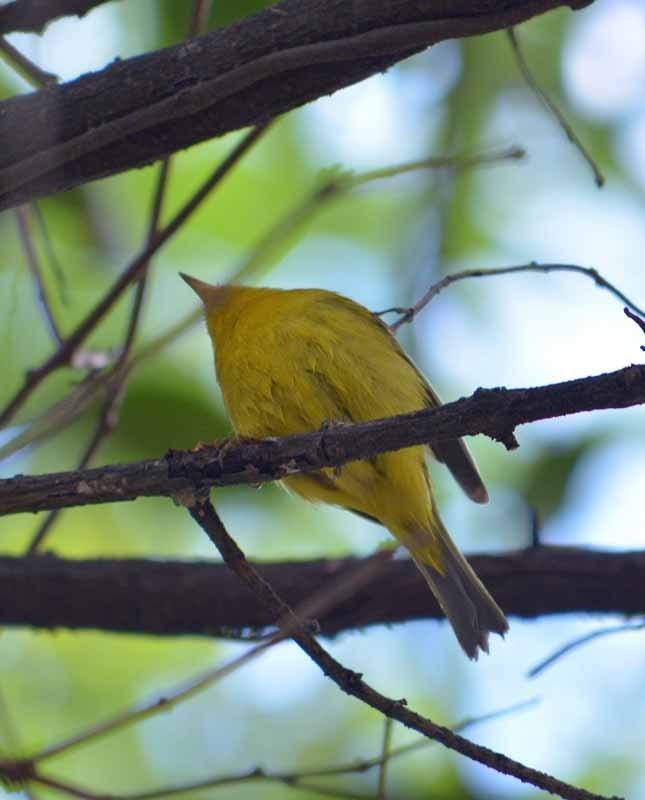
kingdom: Animalia
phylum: Chordata
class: Aves
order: Passeriformes
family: Parulidae
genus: Cardellina
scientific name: Cardellina pusilla
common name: Wilson's warbler
